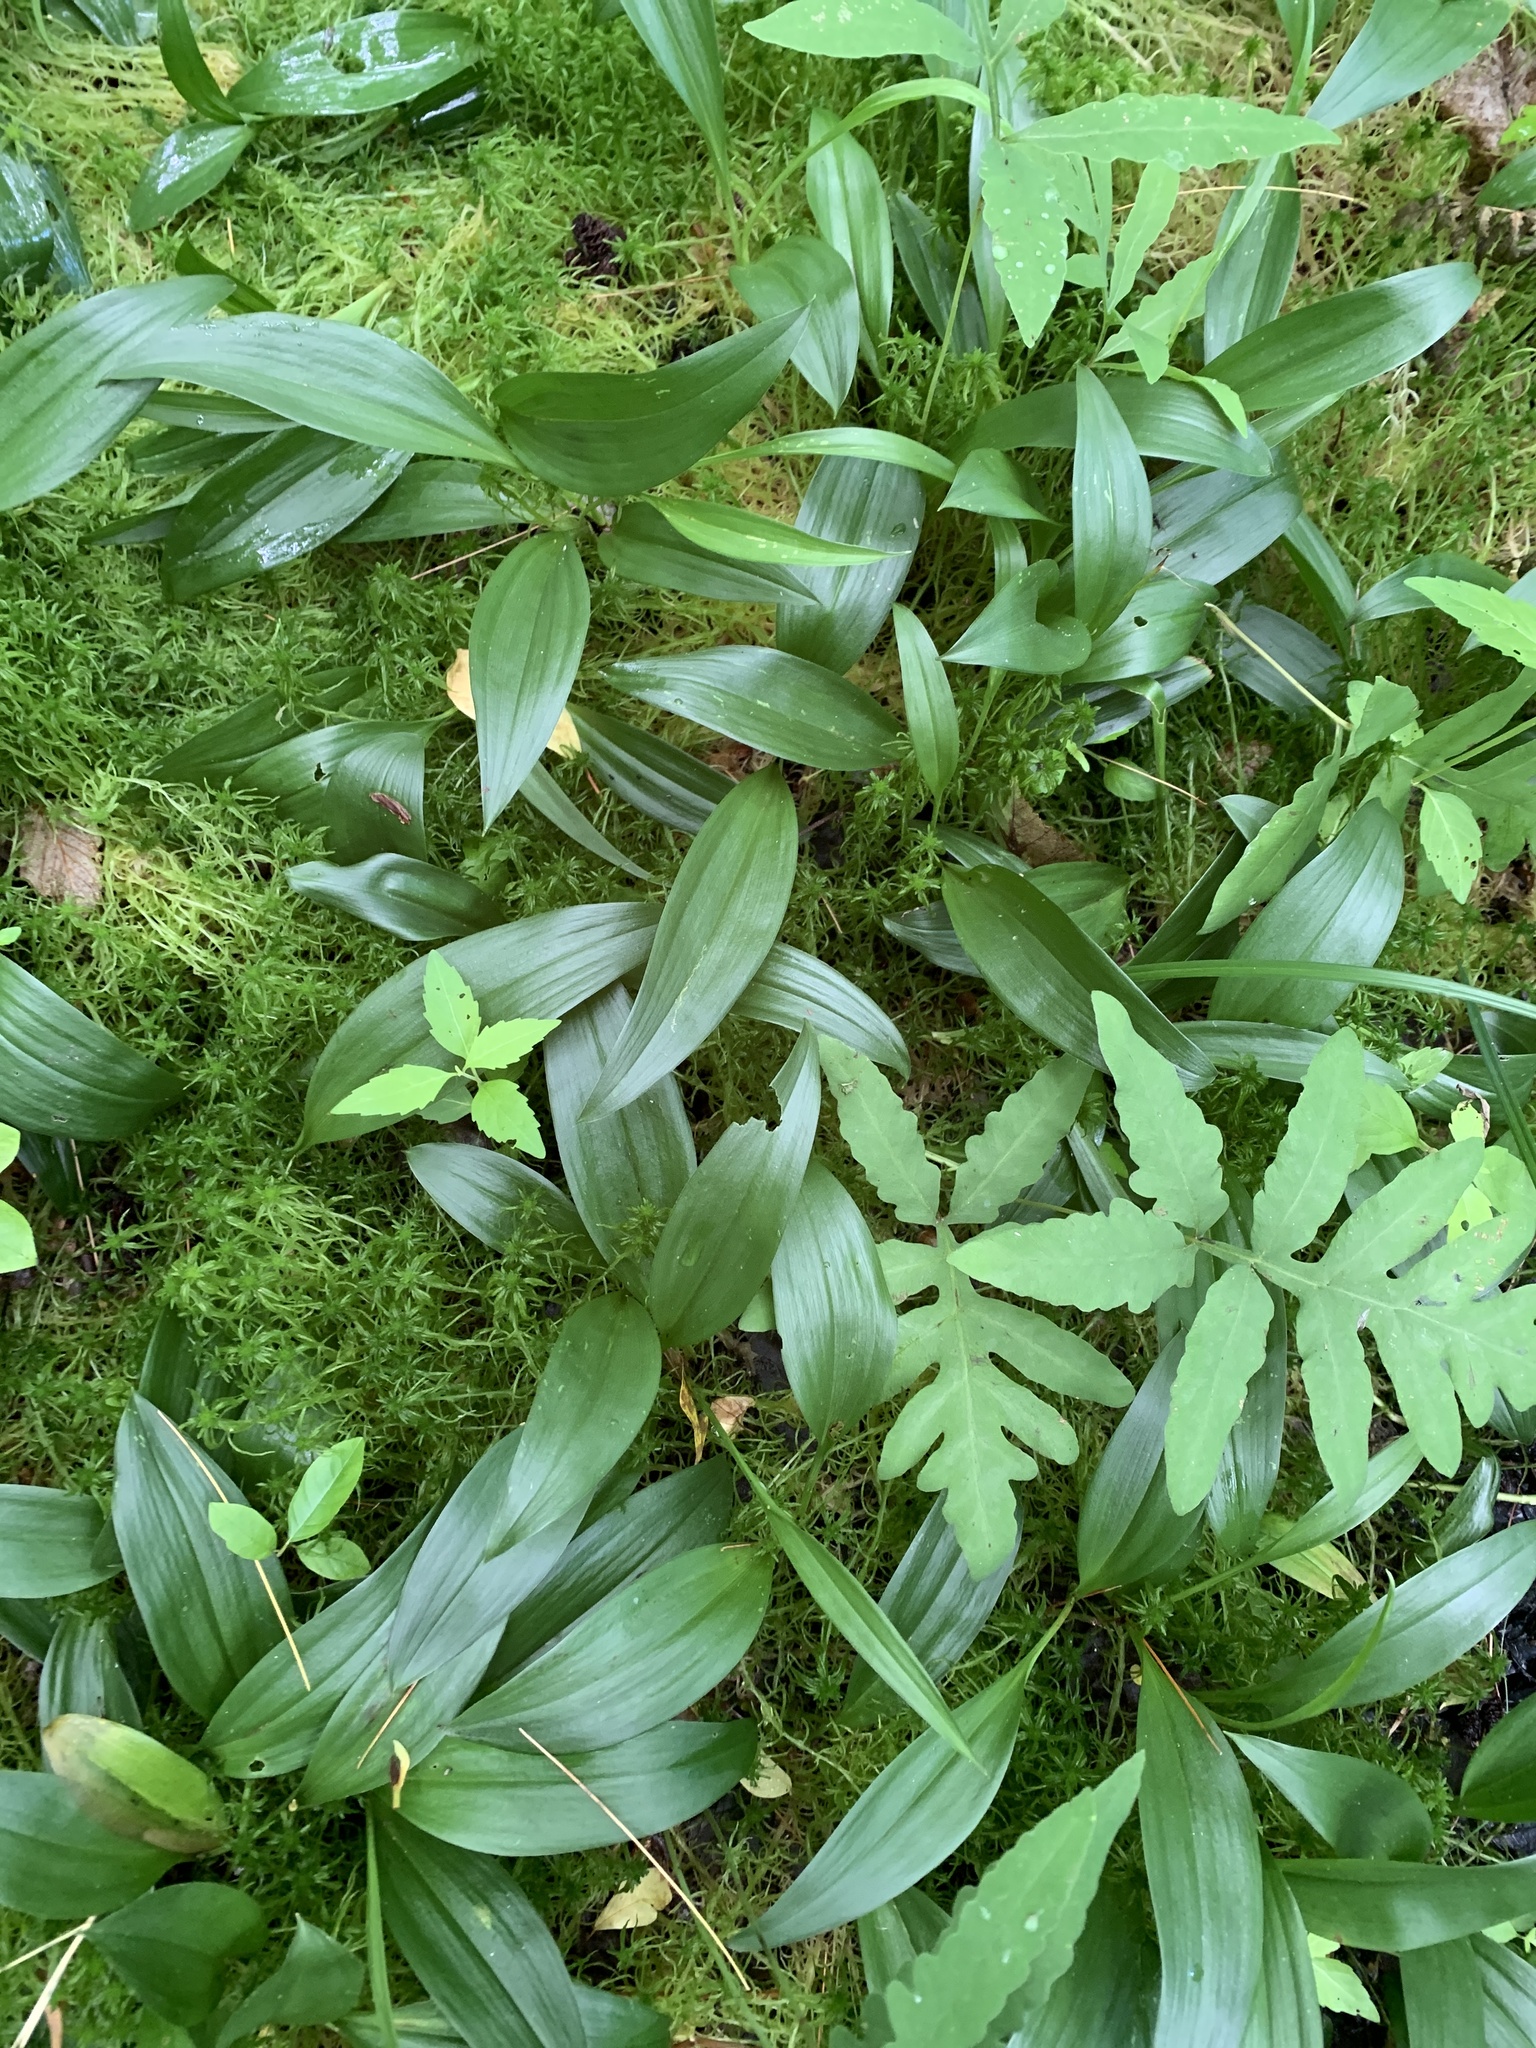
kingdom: Plantae
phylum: Tracheophyta
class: Liliopsida
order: Asparagales
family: Asparagaceae
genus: Maianthemum
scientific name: Maianthemum trifolium
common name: Swamp false solomon's seal
